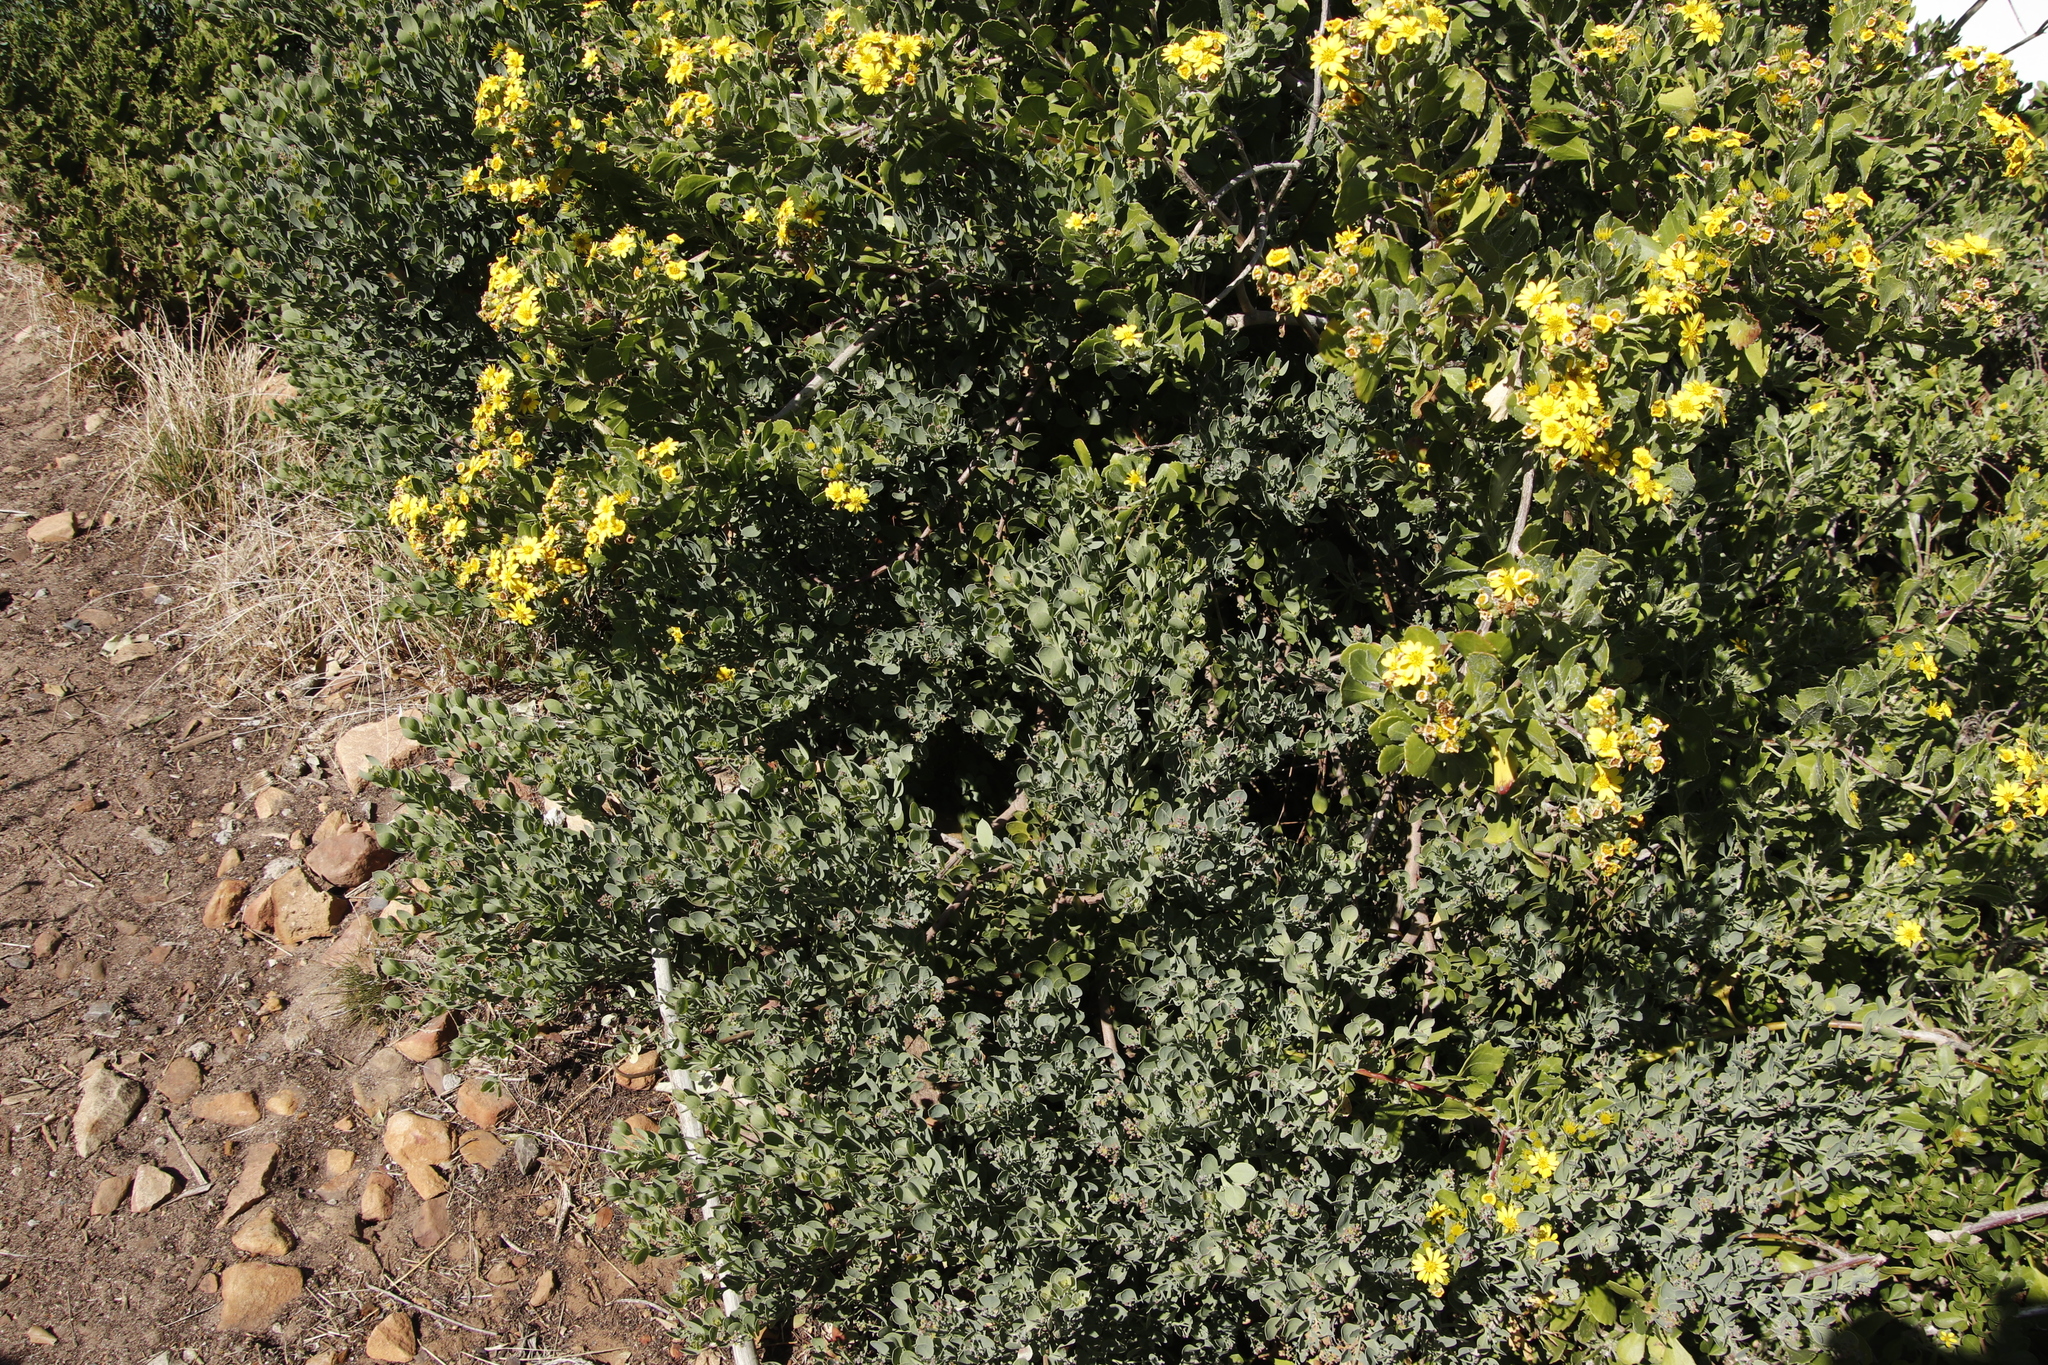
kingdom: Plantae
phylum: Tracheophyta
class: Magnoliopsida
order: Santalales
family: Santalaceae
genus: Osyris
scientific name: Osyris compressa
